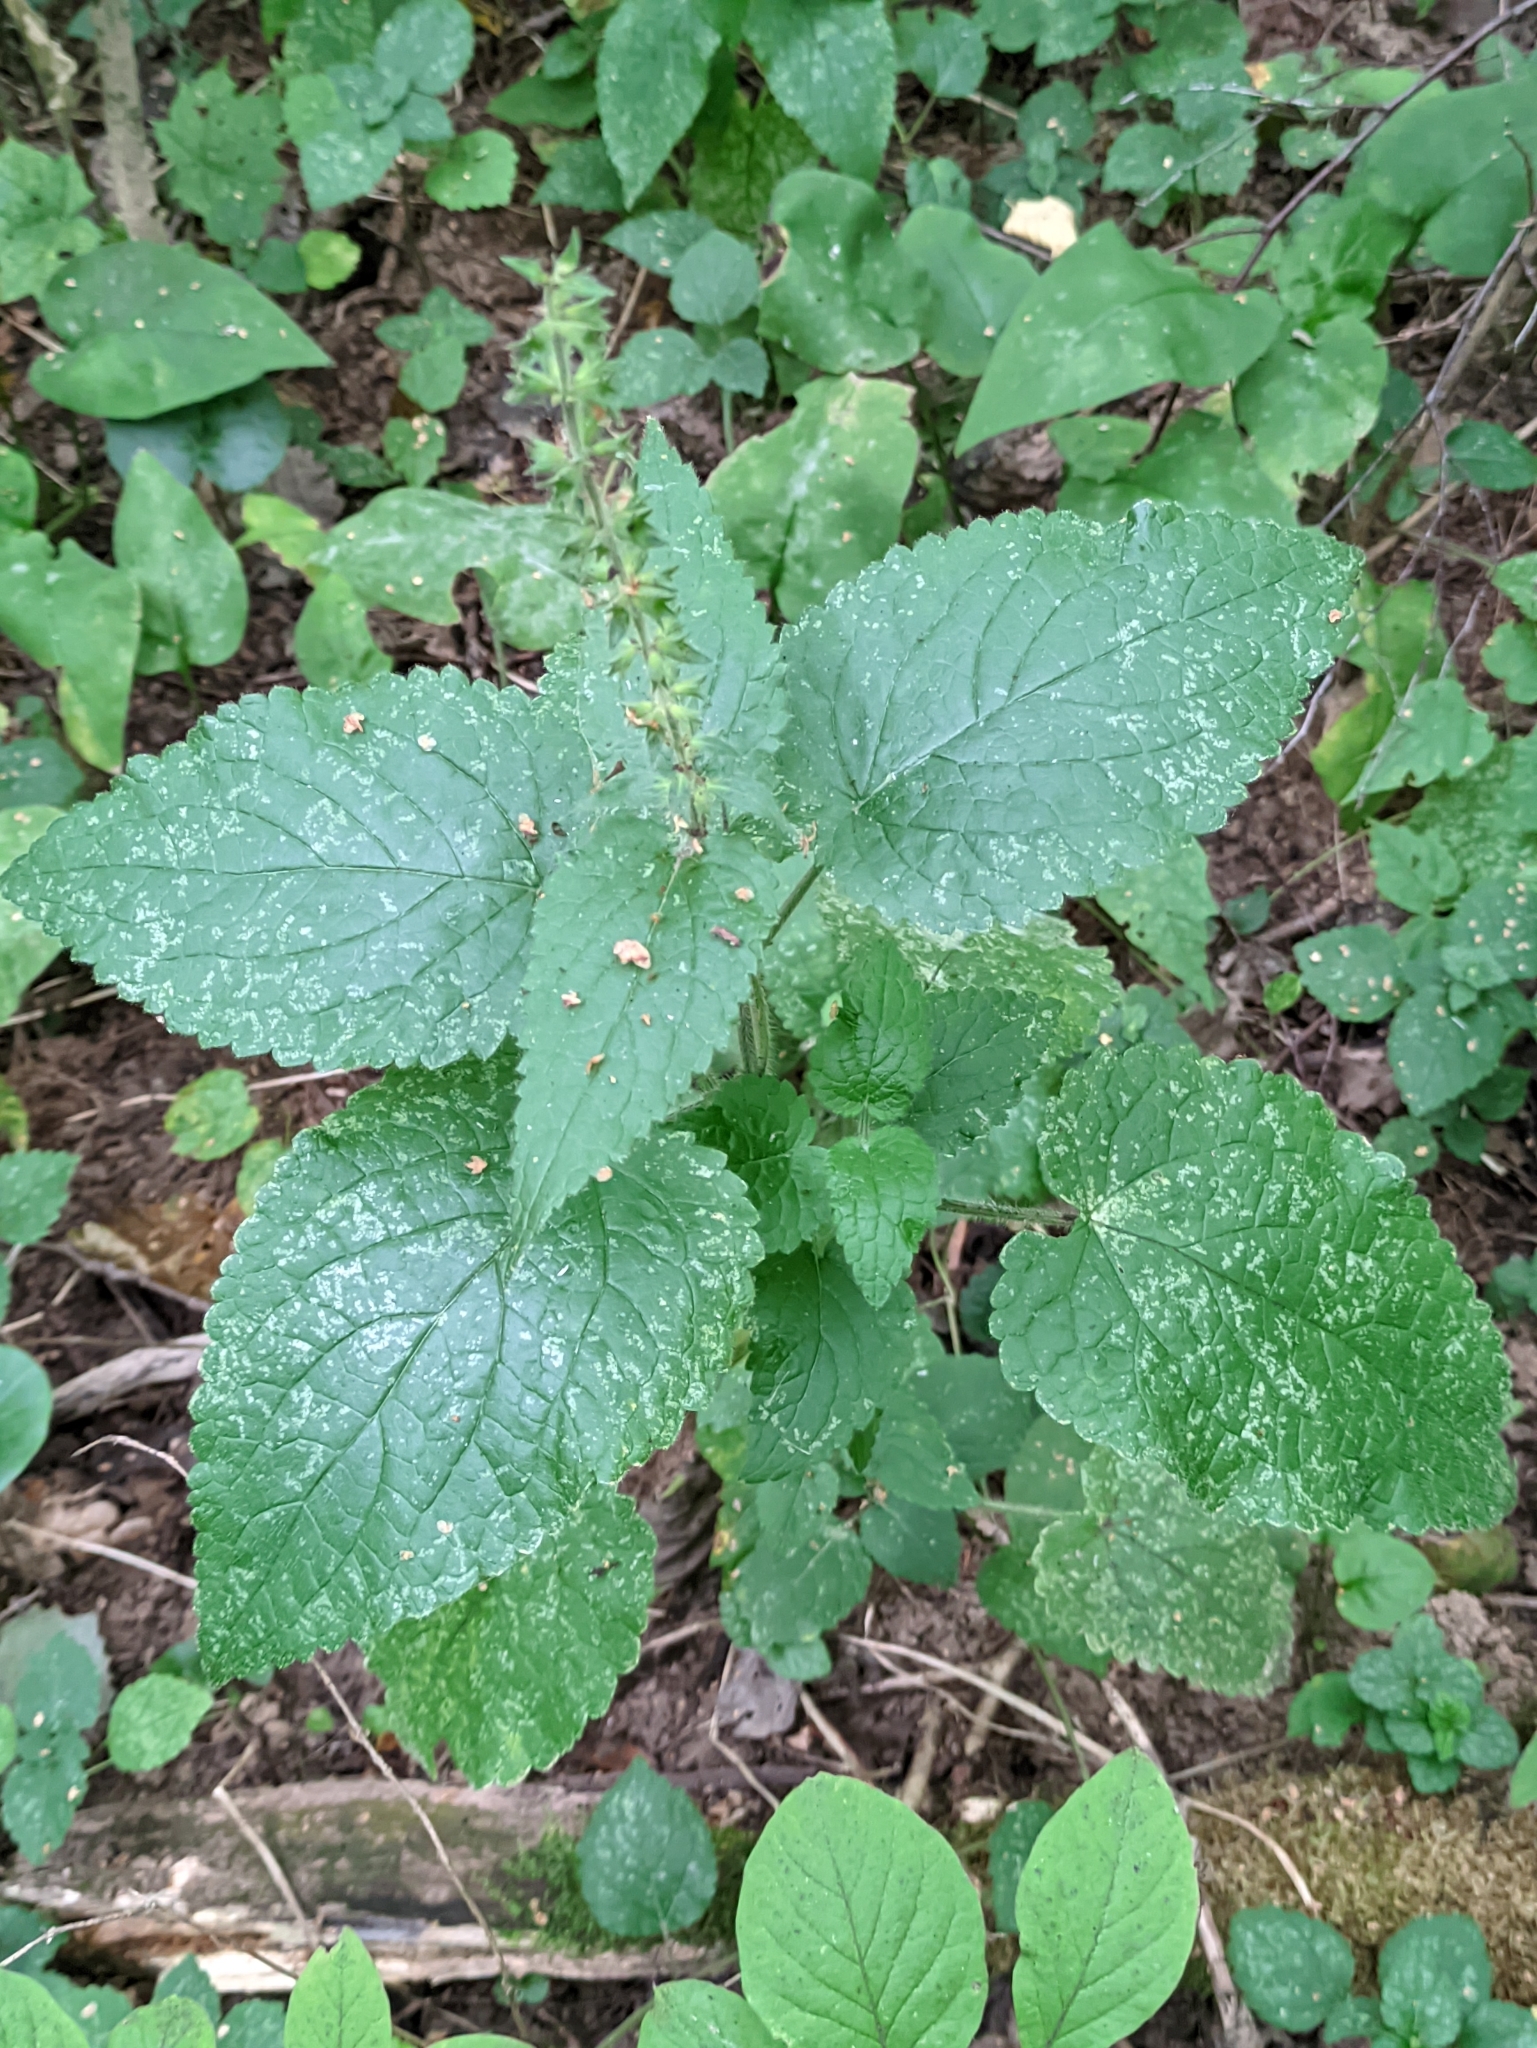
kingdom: Plantae
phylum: Tracheophyta
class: Magnoliopsida
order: Lamiales
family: Lamiaceae
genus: Stachys
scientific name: Stachys sylvatica
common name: Hedge woundwort
